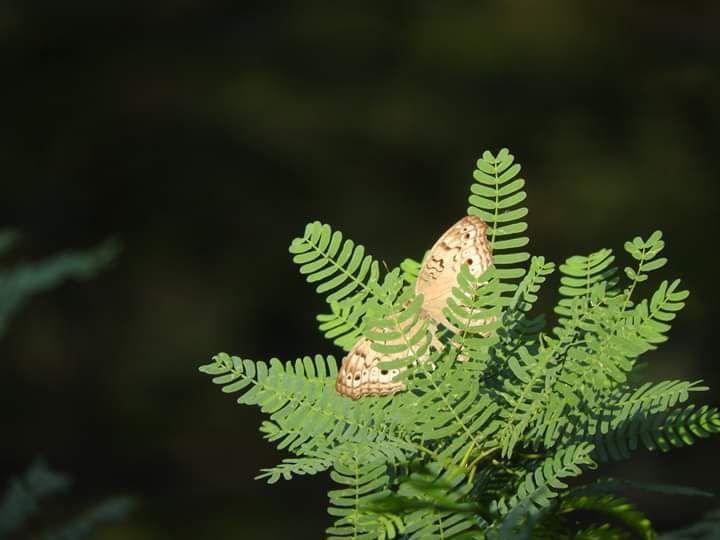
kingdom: Animalia
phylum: Arthropoda
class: Insecta
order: Lepidoptera
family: Nymphalidae
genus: Junonia
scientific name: Junonia atlites
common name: Grey pansy
